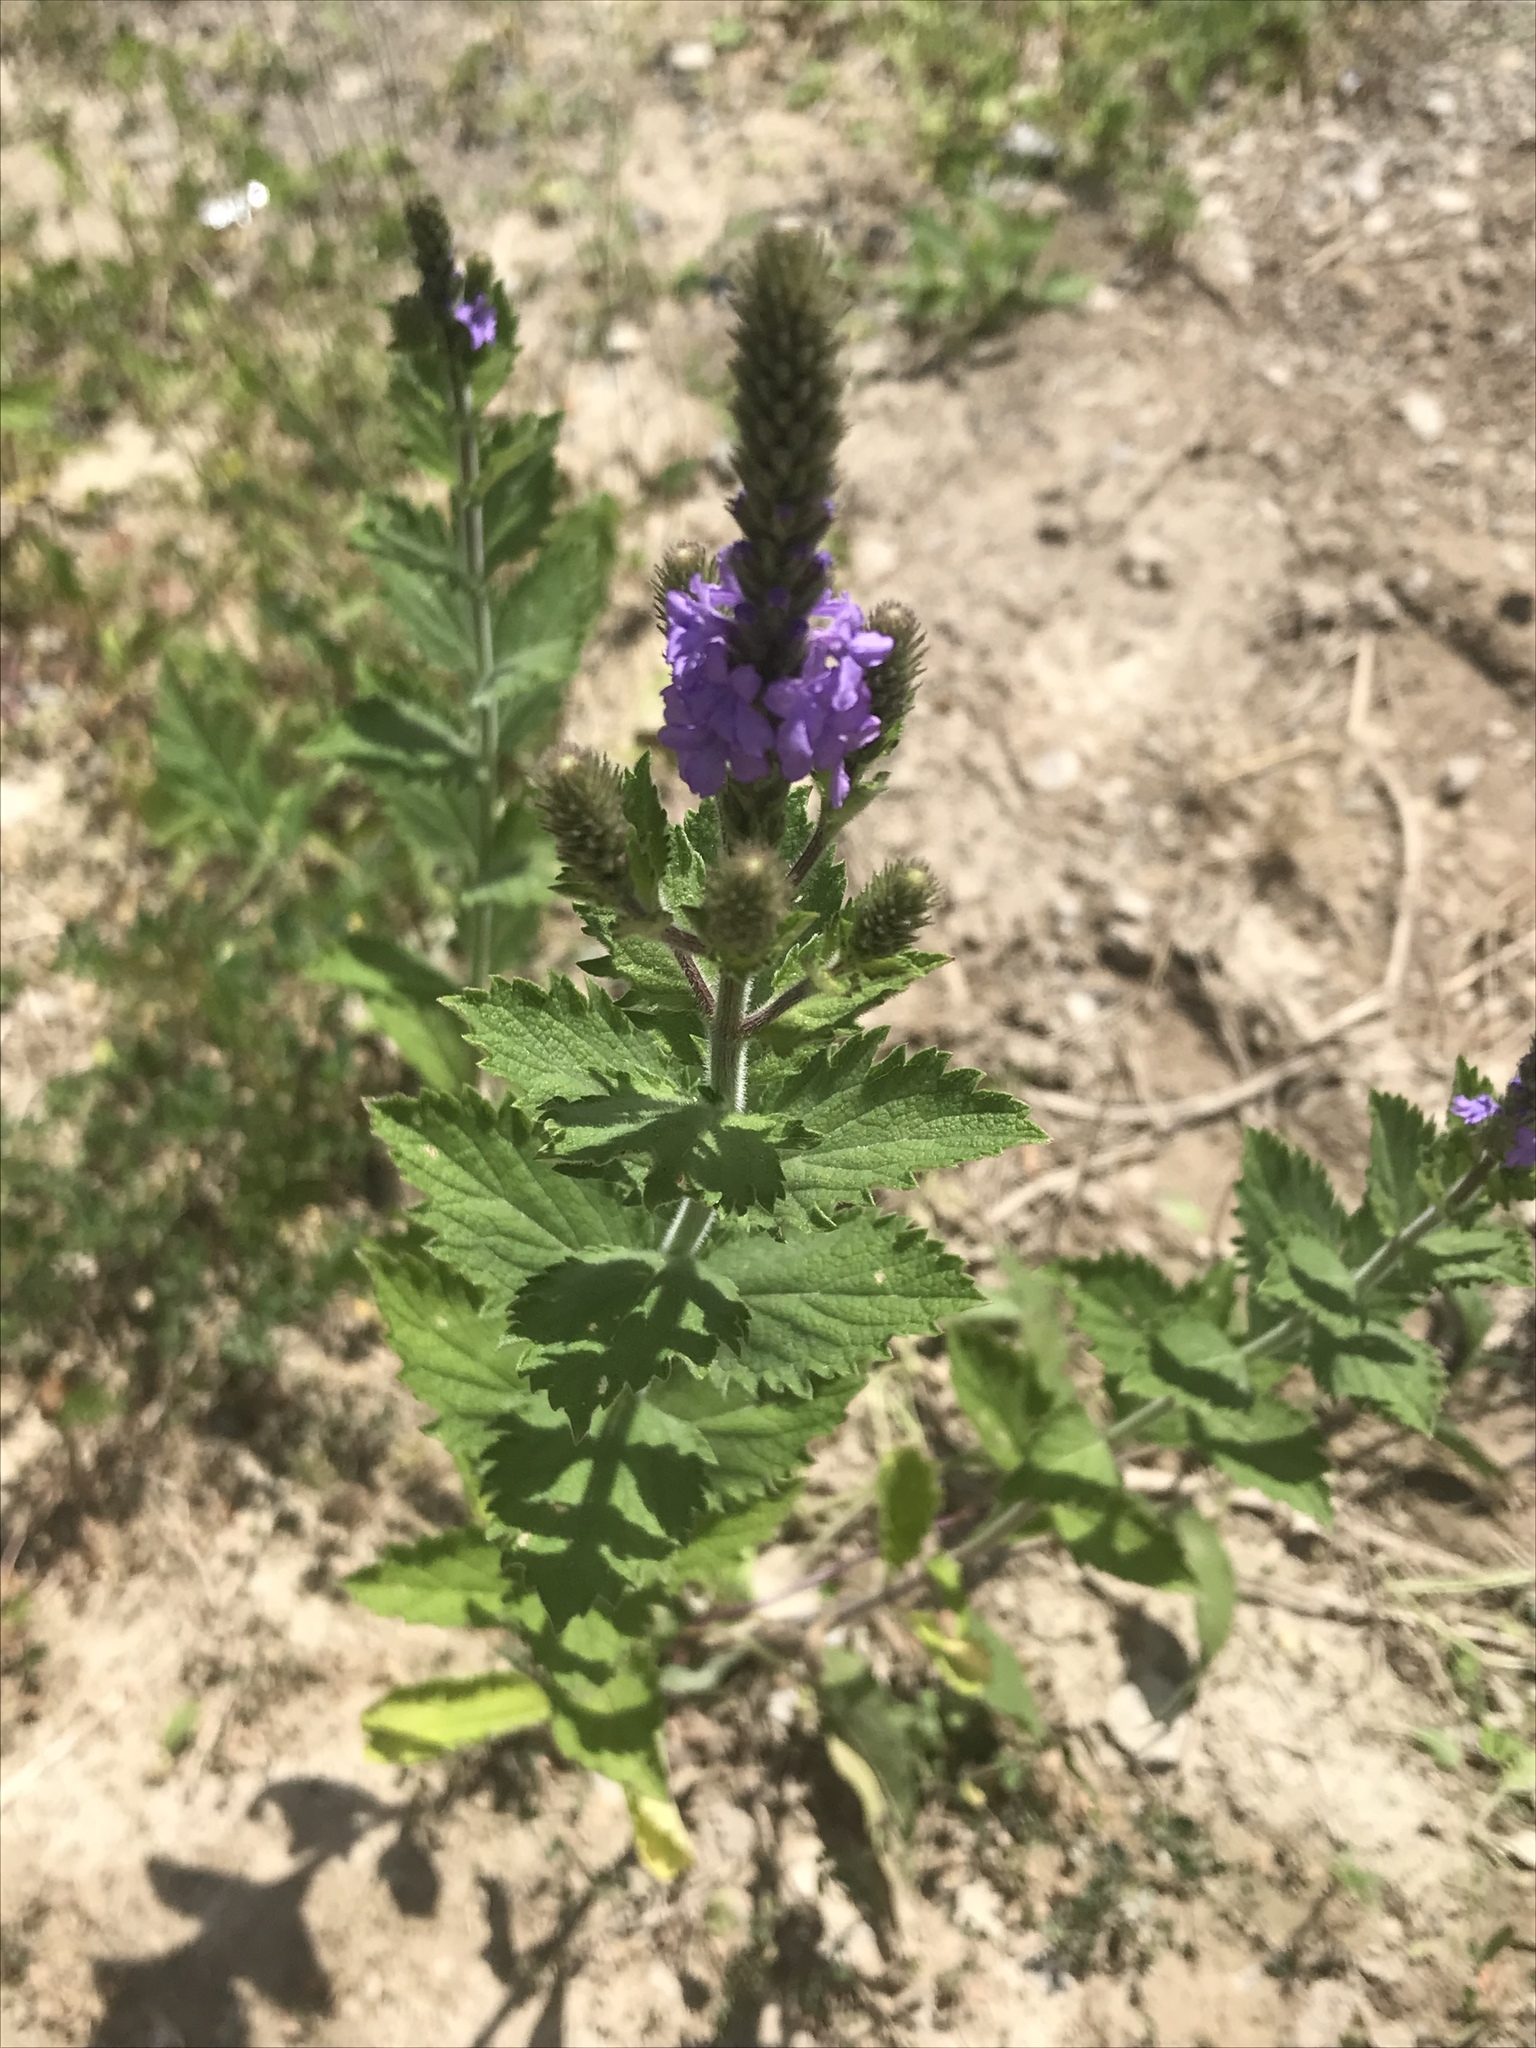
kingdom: Plantae
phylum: Tracheophyta
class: Magnoliopsida
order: Lamiales
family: Verbenaceae
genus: Verbena
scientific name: Verbena stricta
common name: Hoary vervain
